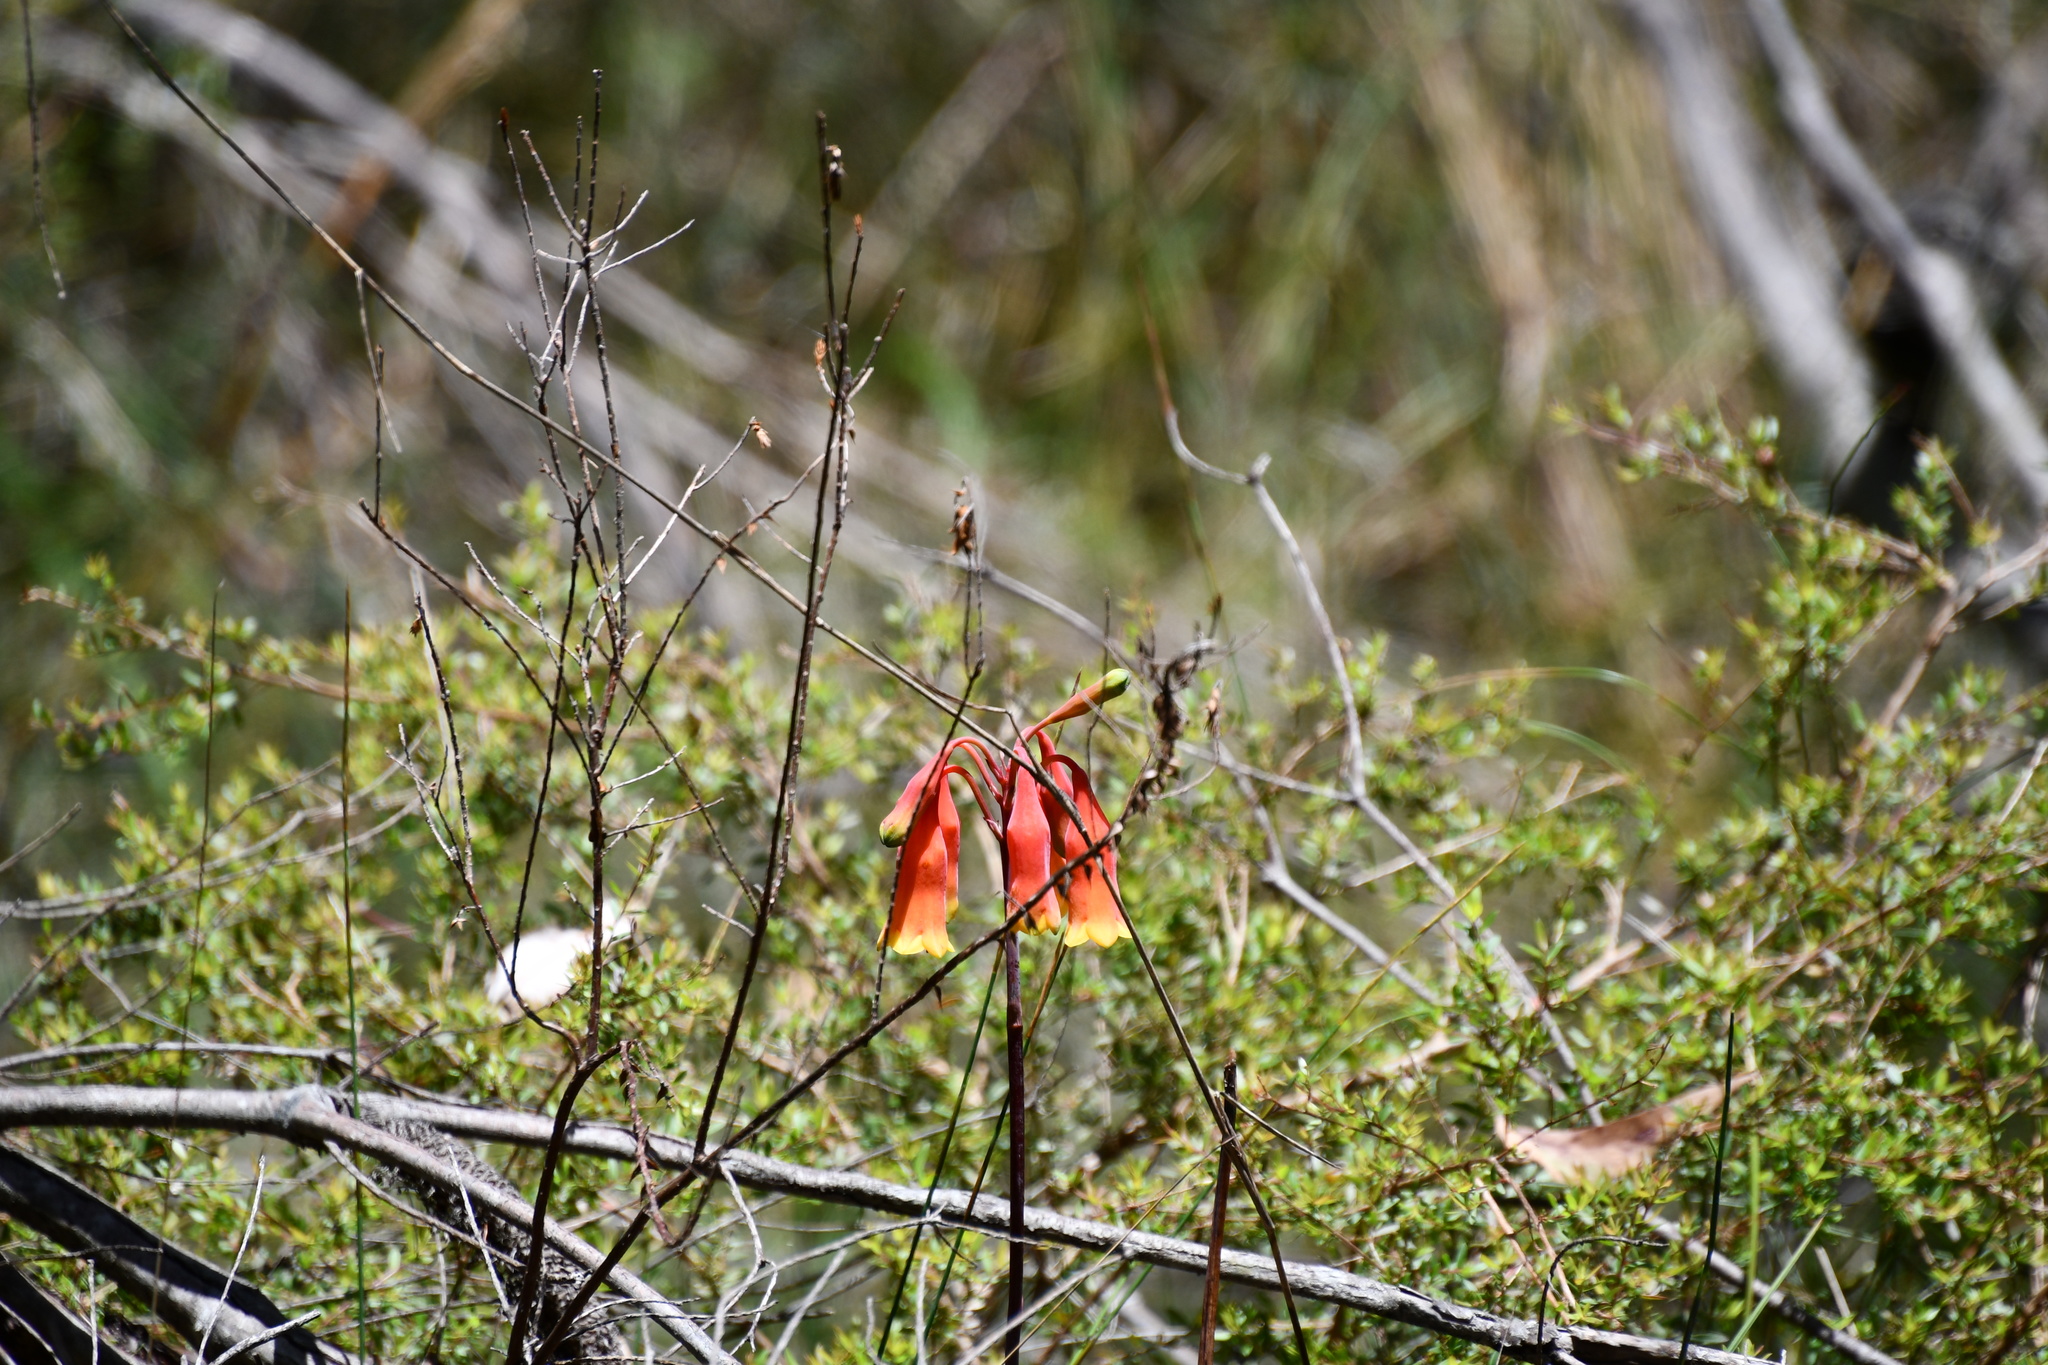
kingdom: Plantae
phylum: Tracheophyta
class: Liliopsida
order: Asparagales
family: Blandfordiaceae
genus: Blandfordia
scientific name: Blandfordia nobilis
